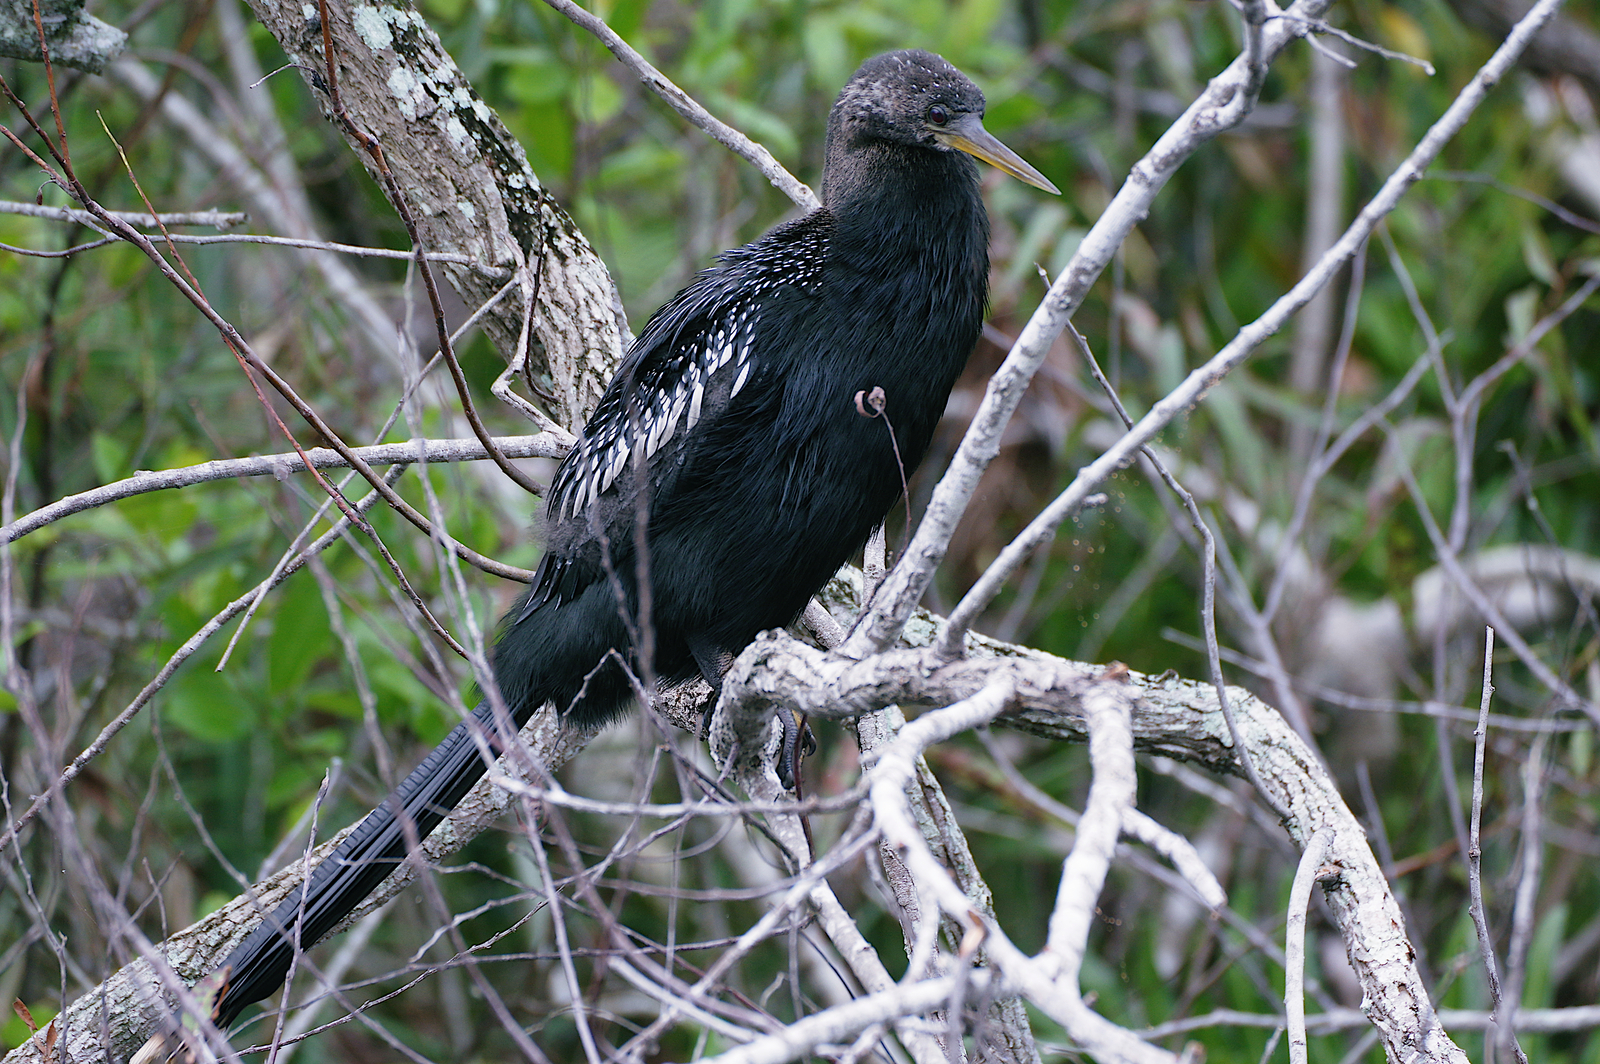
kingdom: Animalia
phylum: Chordata
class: Aves
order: Suliformes
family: Anhingidae
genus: Anhinga
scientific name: Anhinga anhinga
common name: Anhinga
